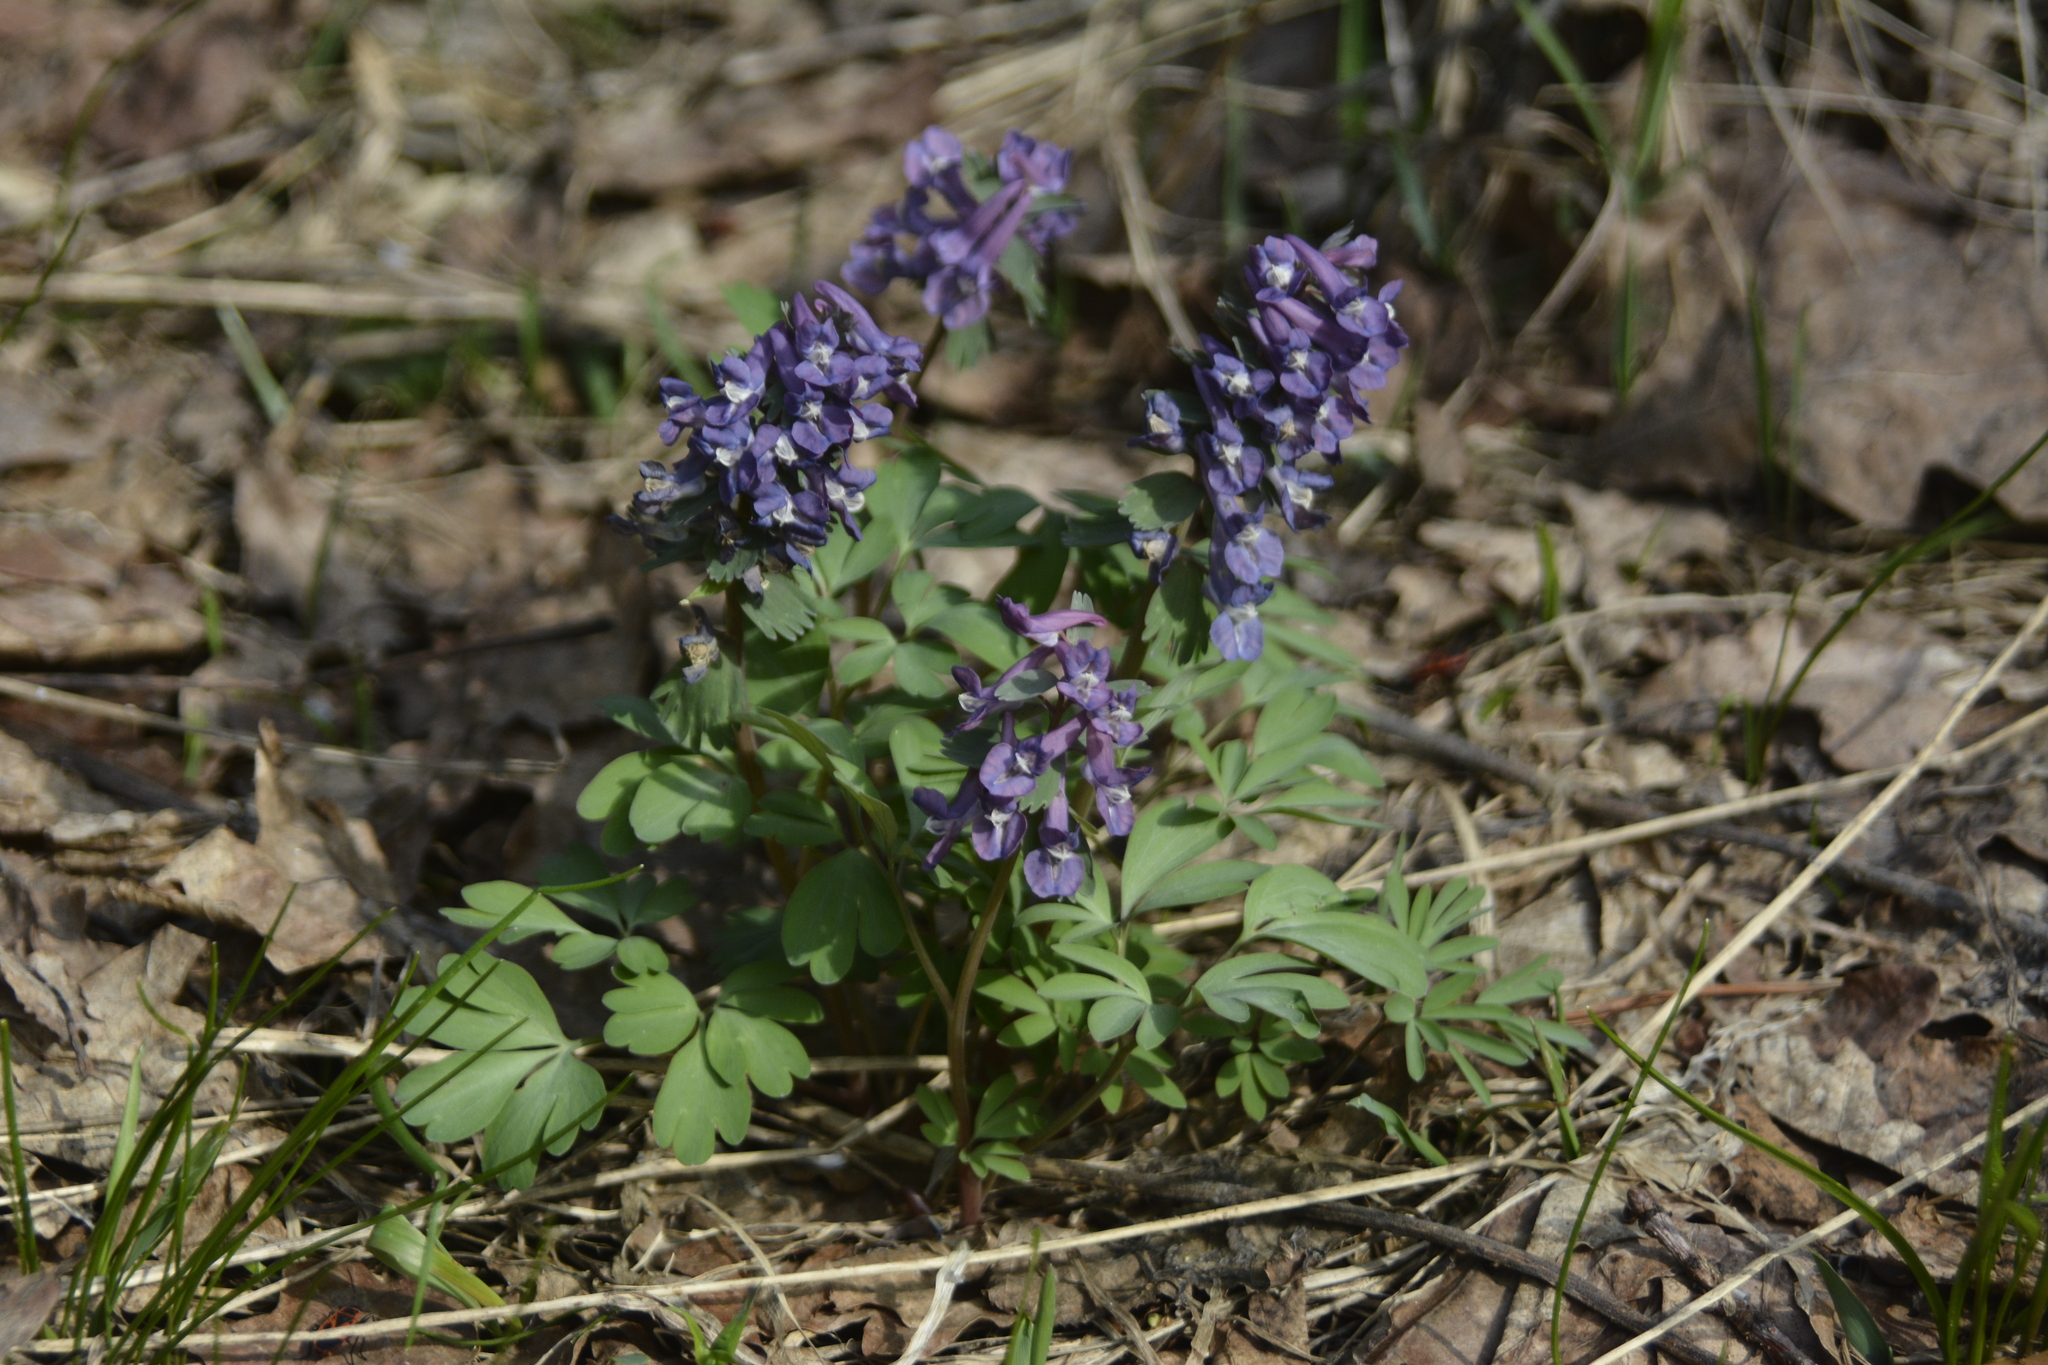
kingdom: Plantae
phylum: Tracheophyta
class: Magnoliopsida
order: Ranunculales
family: Papaveraceae
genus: Corydalis
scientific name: Corydalis solida
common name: Bird-in-a-bush
